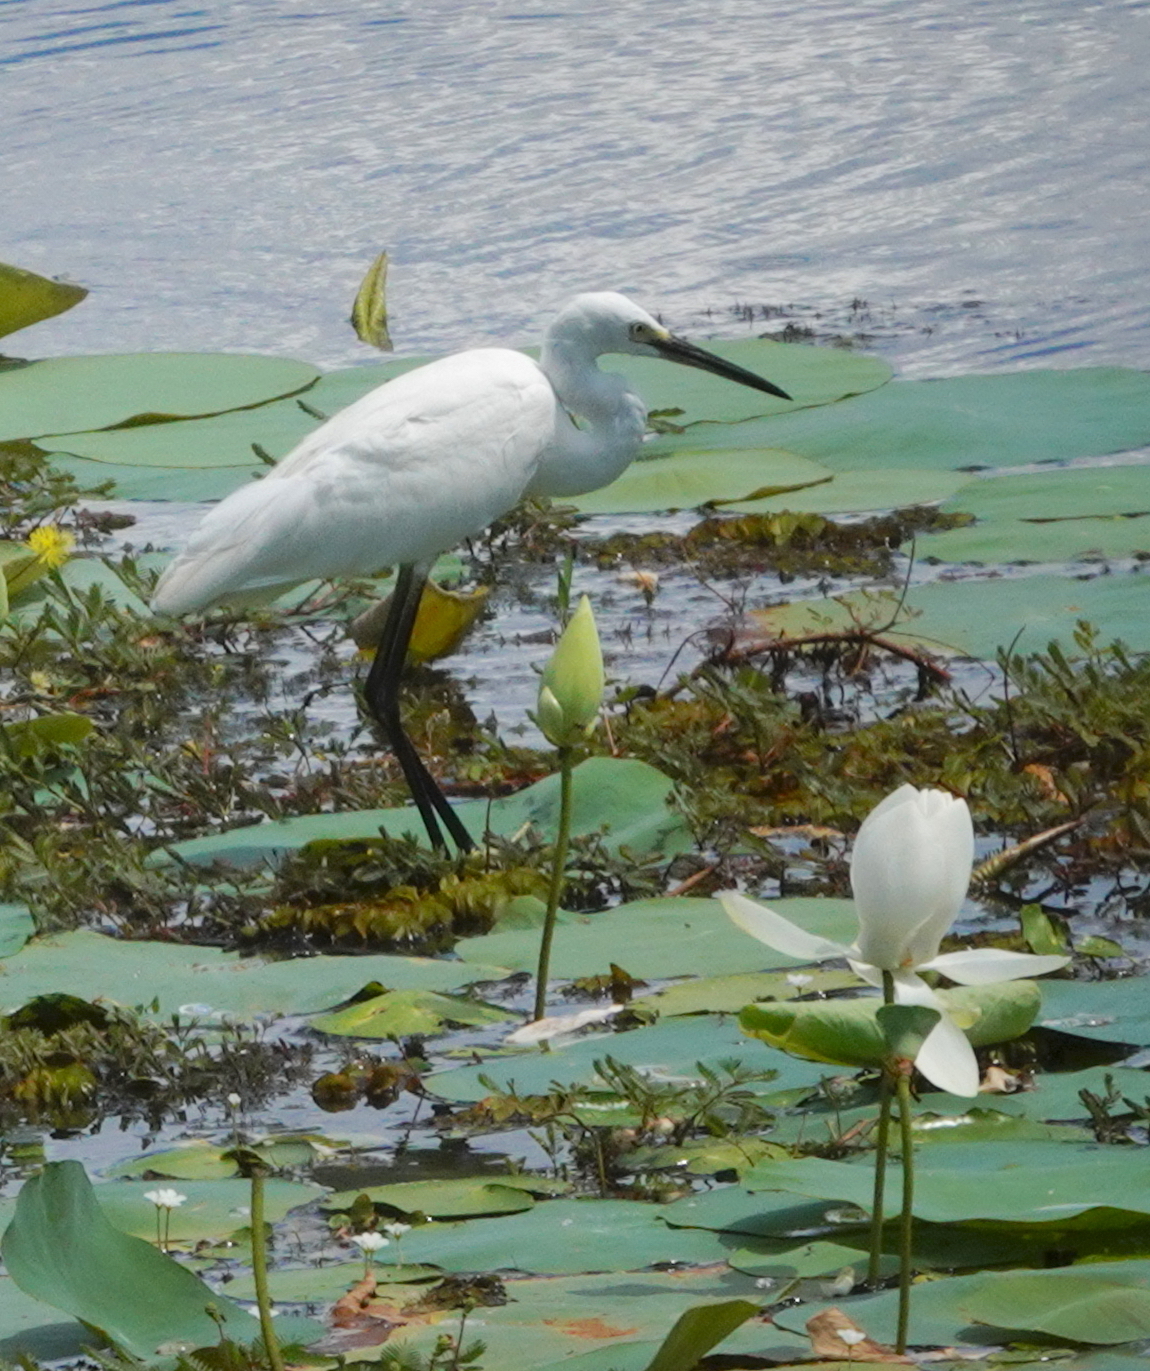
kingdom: Animalia
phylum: Chordata
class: Aves
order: Pelecaniformes
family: Ardeidae
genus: Egretta
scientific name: Egretta garzetta
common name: Little egret
